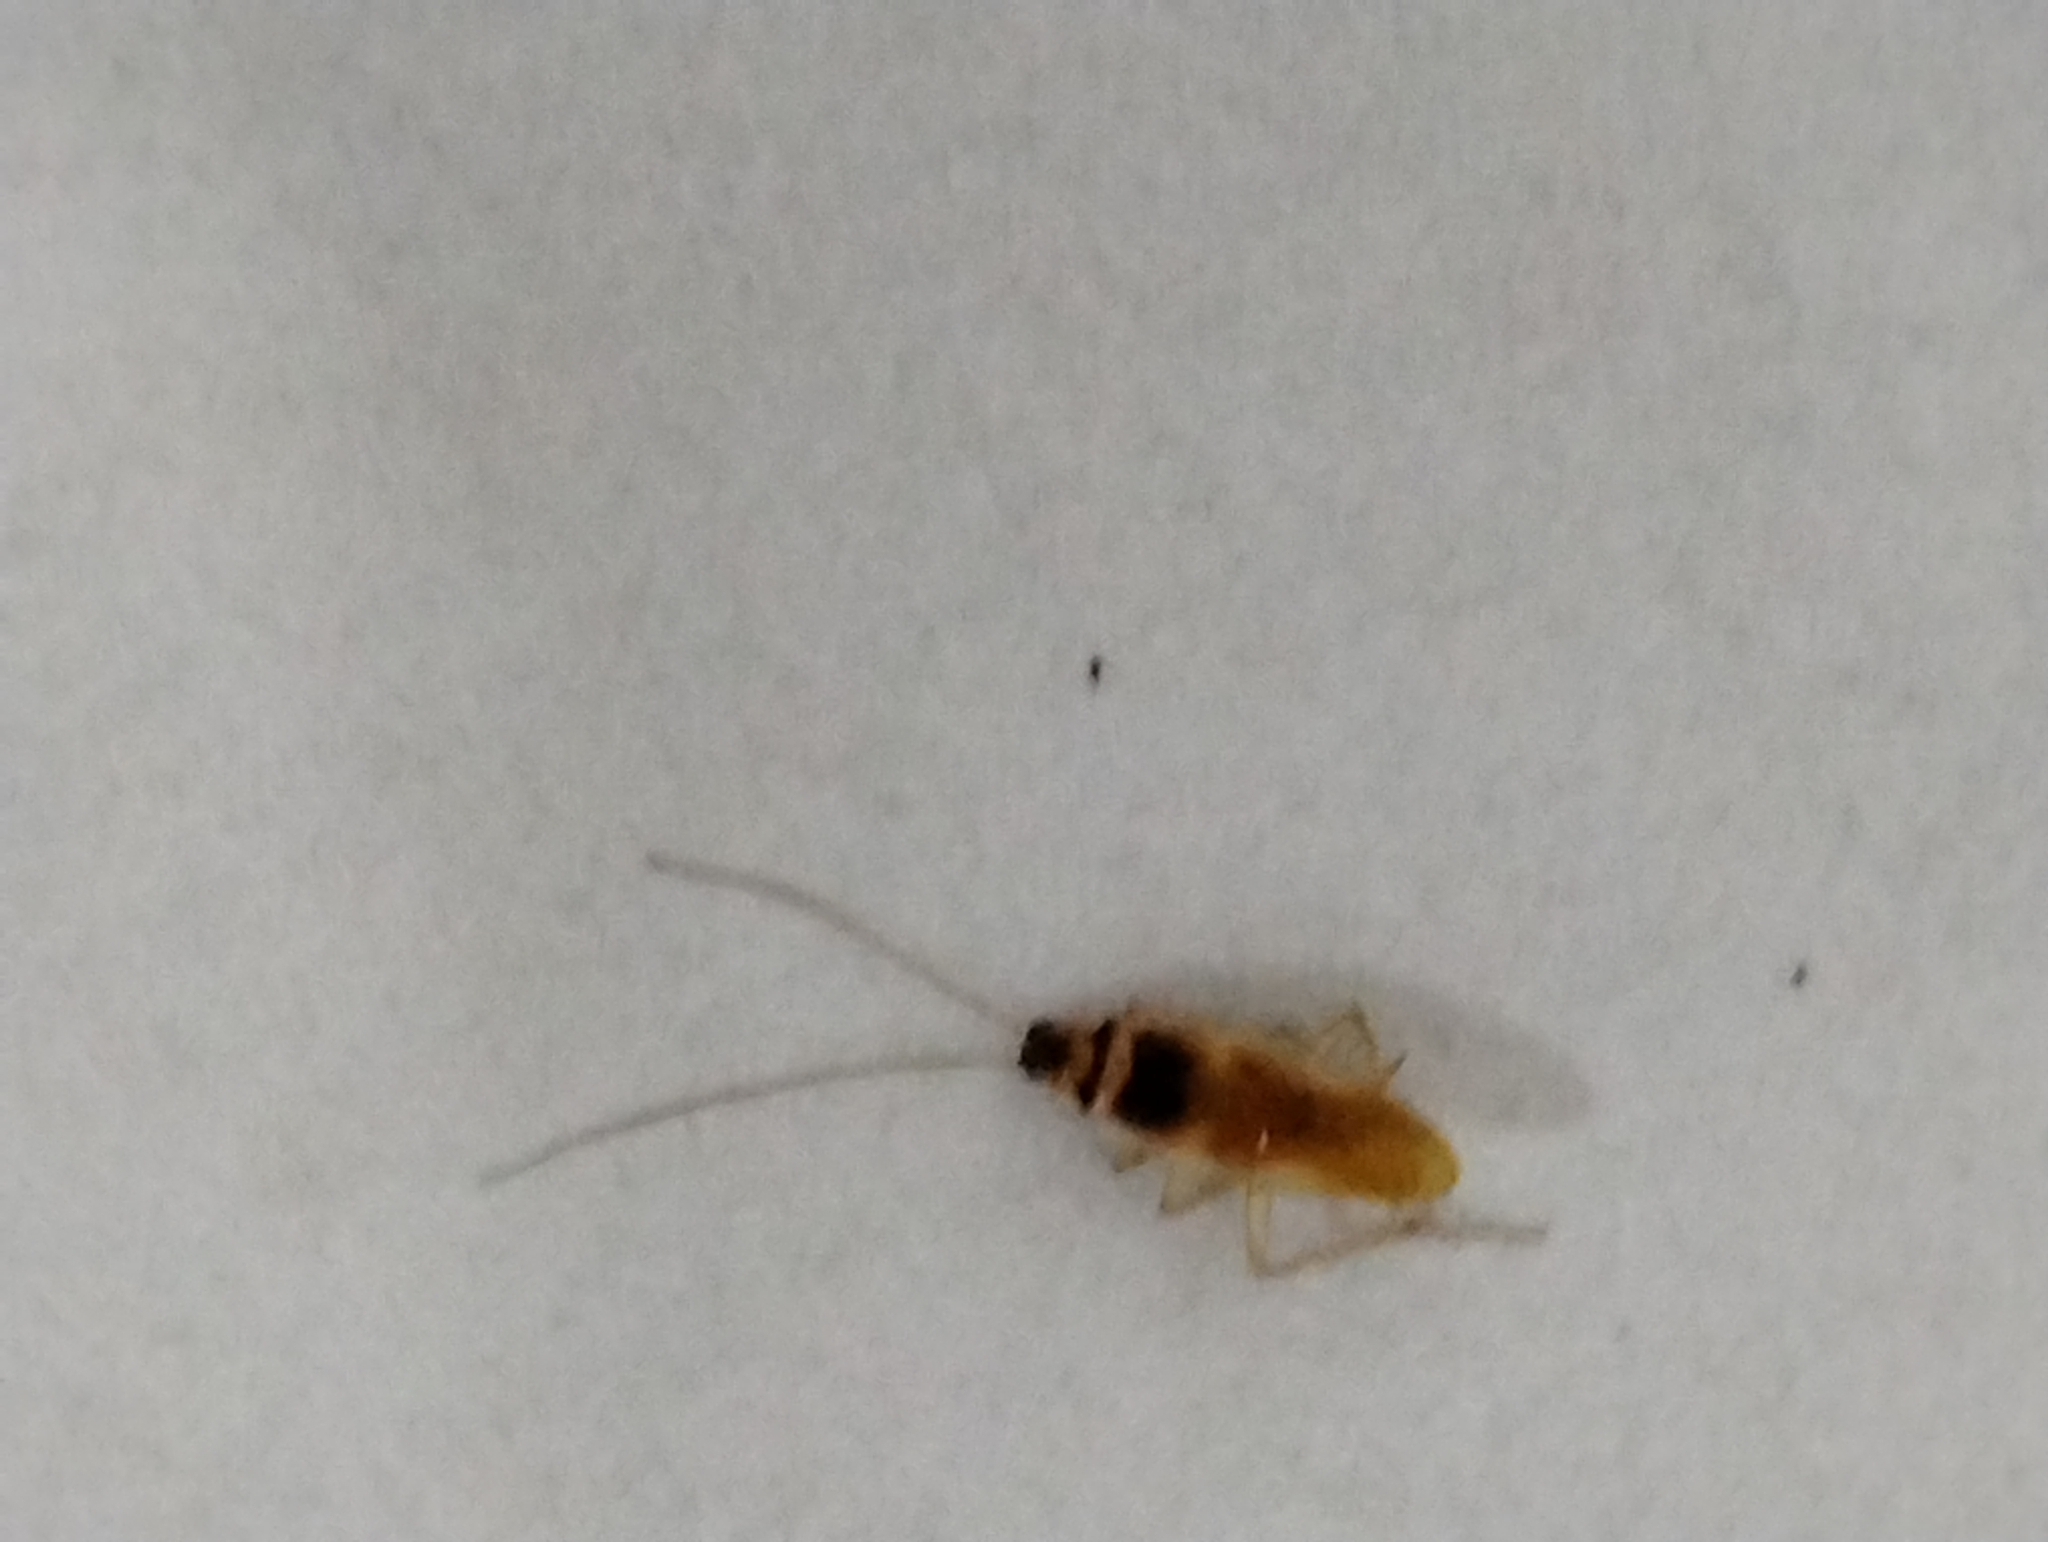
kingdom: Animalia
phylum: Arthropoda
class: Insecta
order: Blattodea
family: Ectobiidae
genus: Supella
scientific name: Supella longipalpa
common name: Brown-banded cockroach
